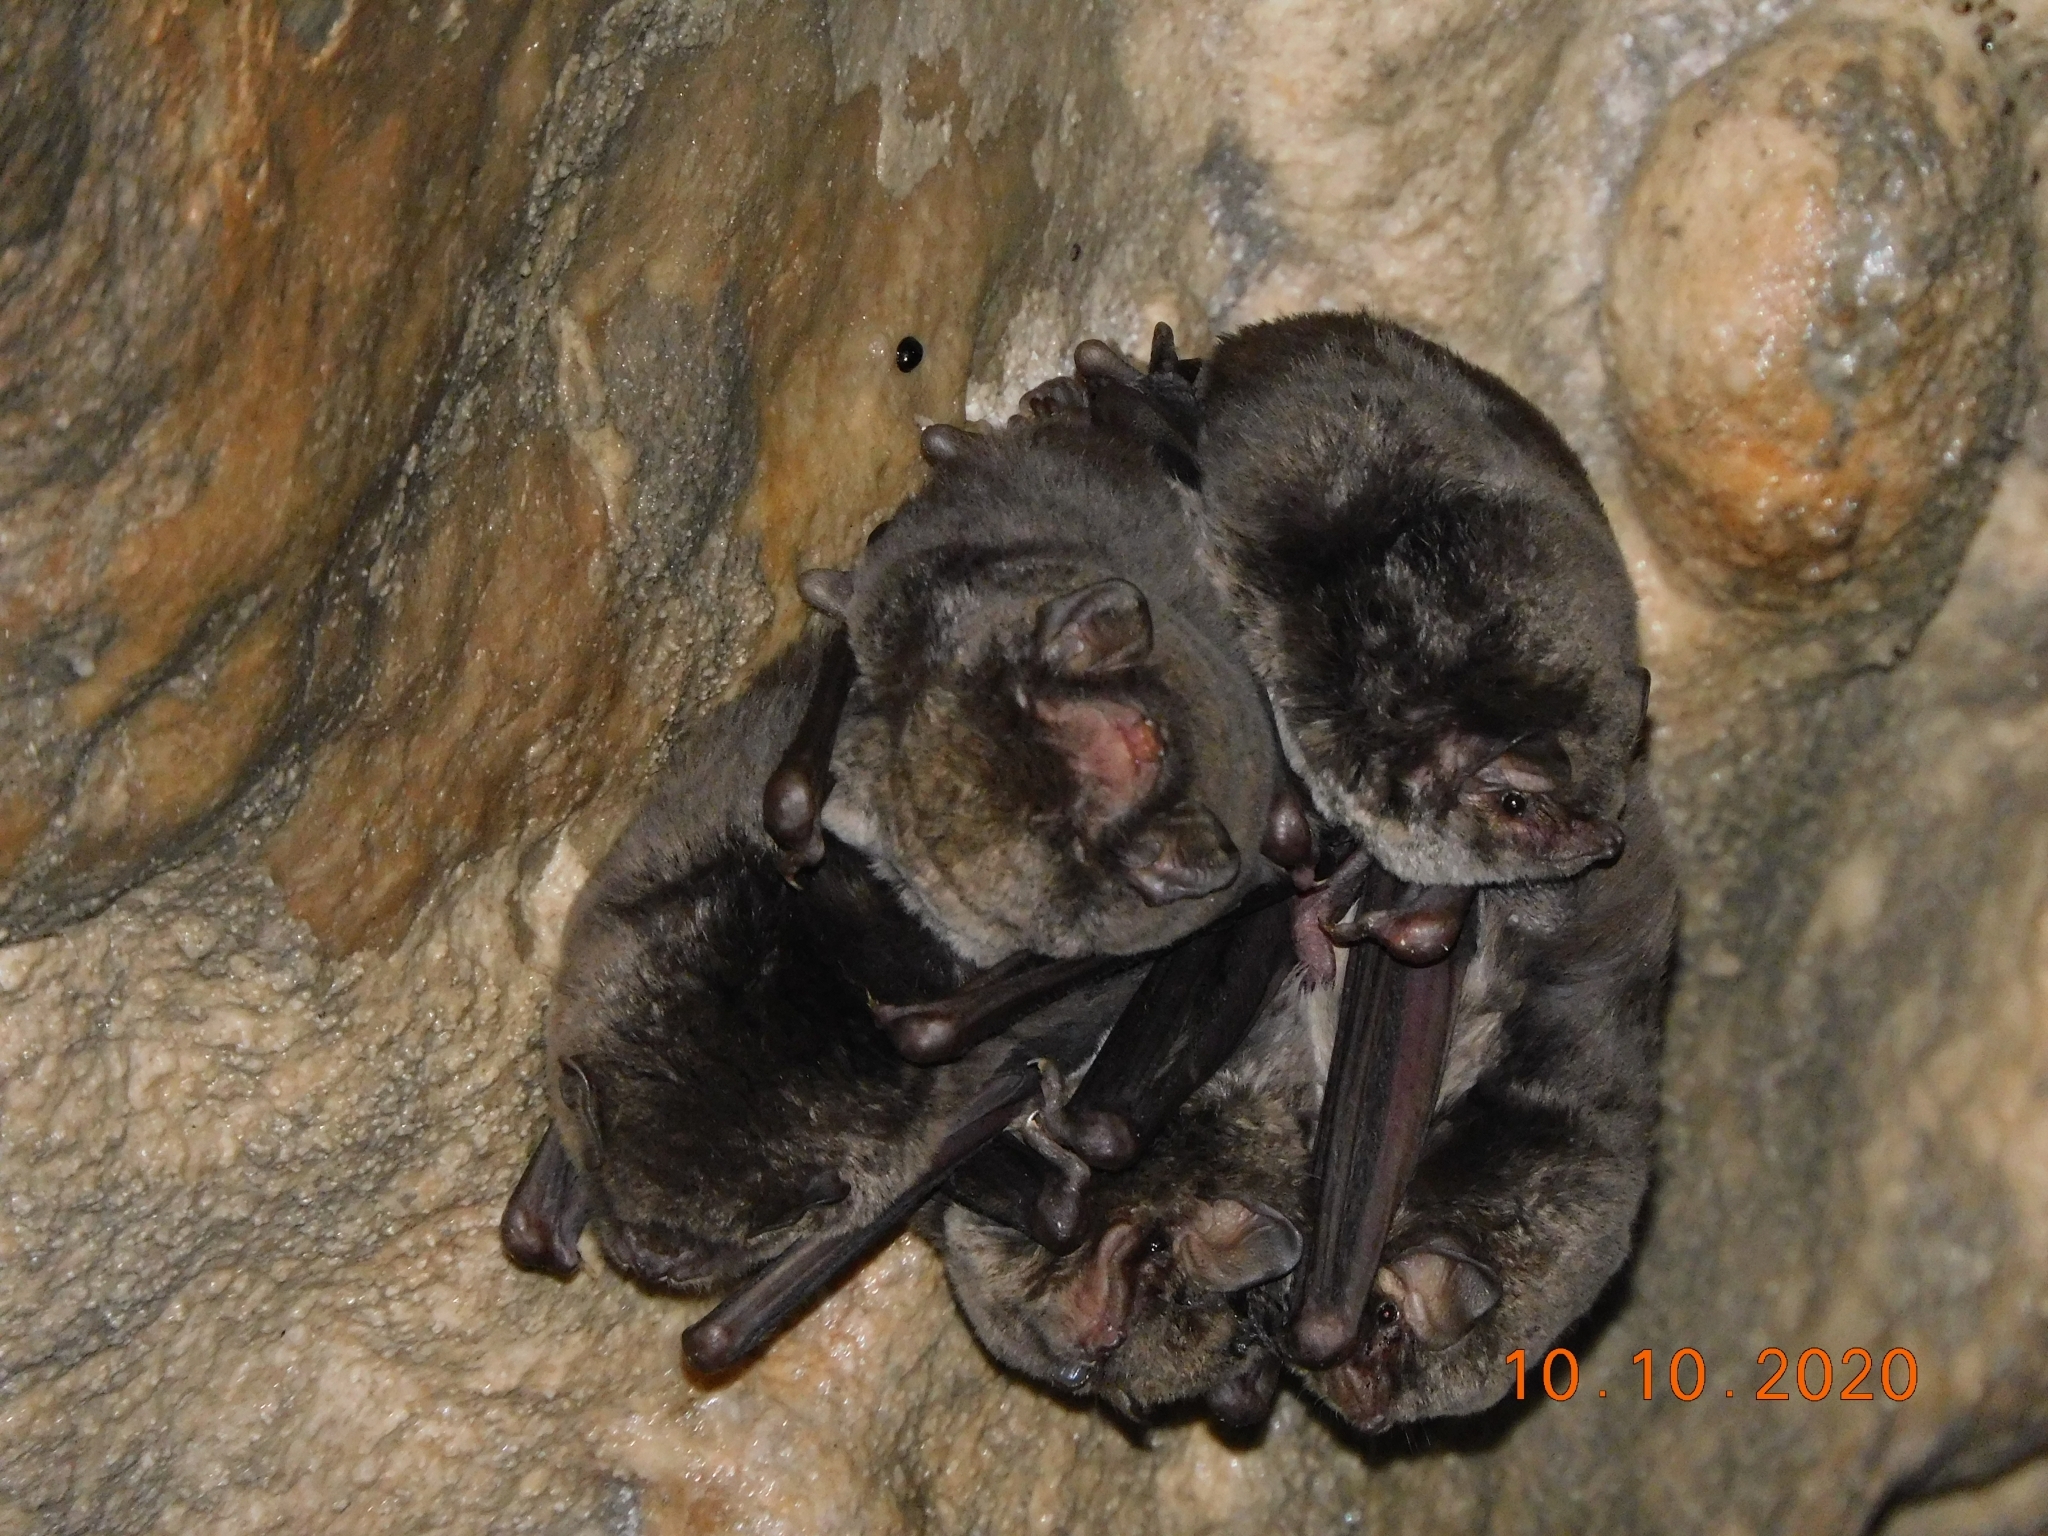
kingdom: Animalia
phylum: Chordata
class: Mammalia
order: Chiroptera
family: Miniopteridae
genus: Miniopterus
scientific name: Miniopterus schreibersii
